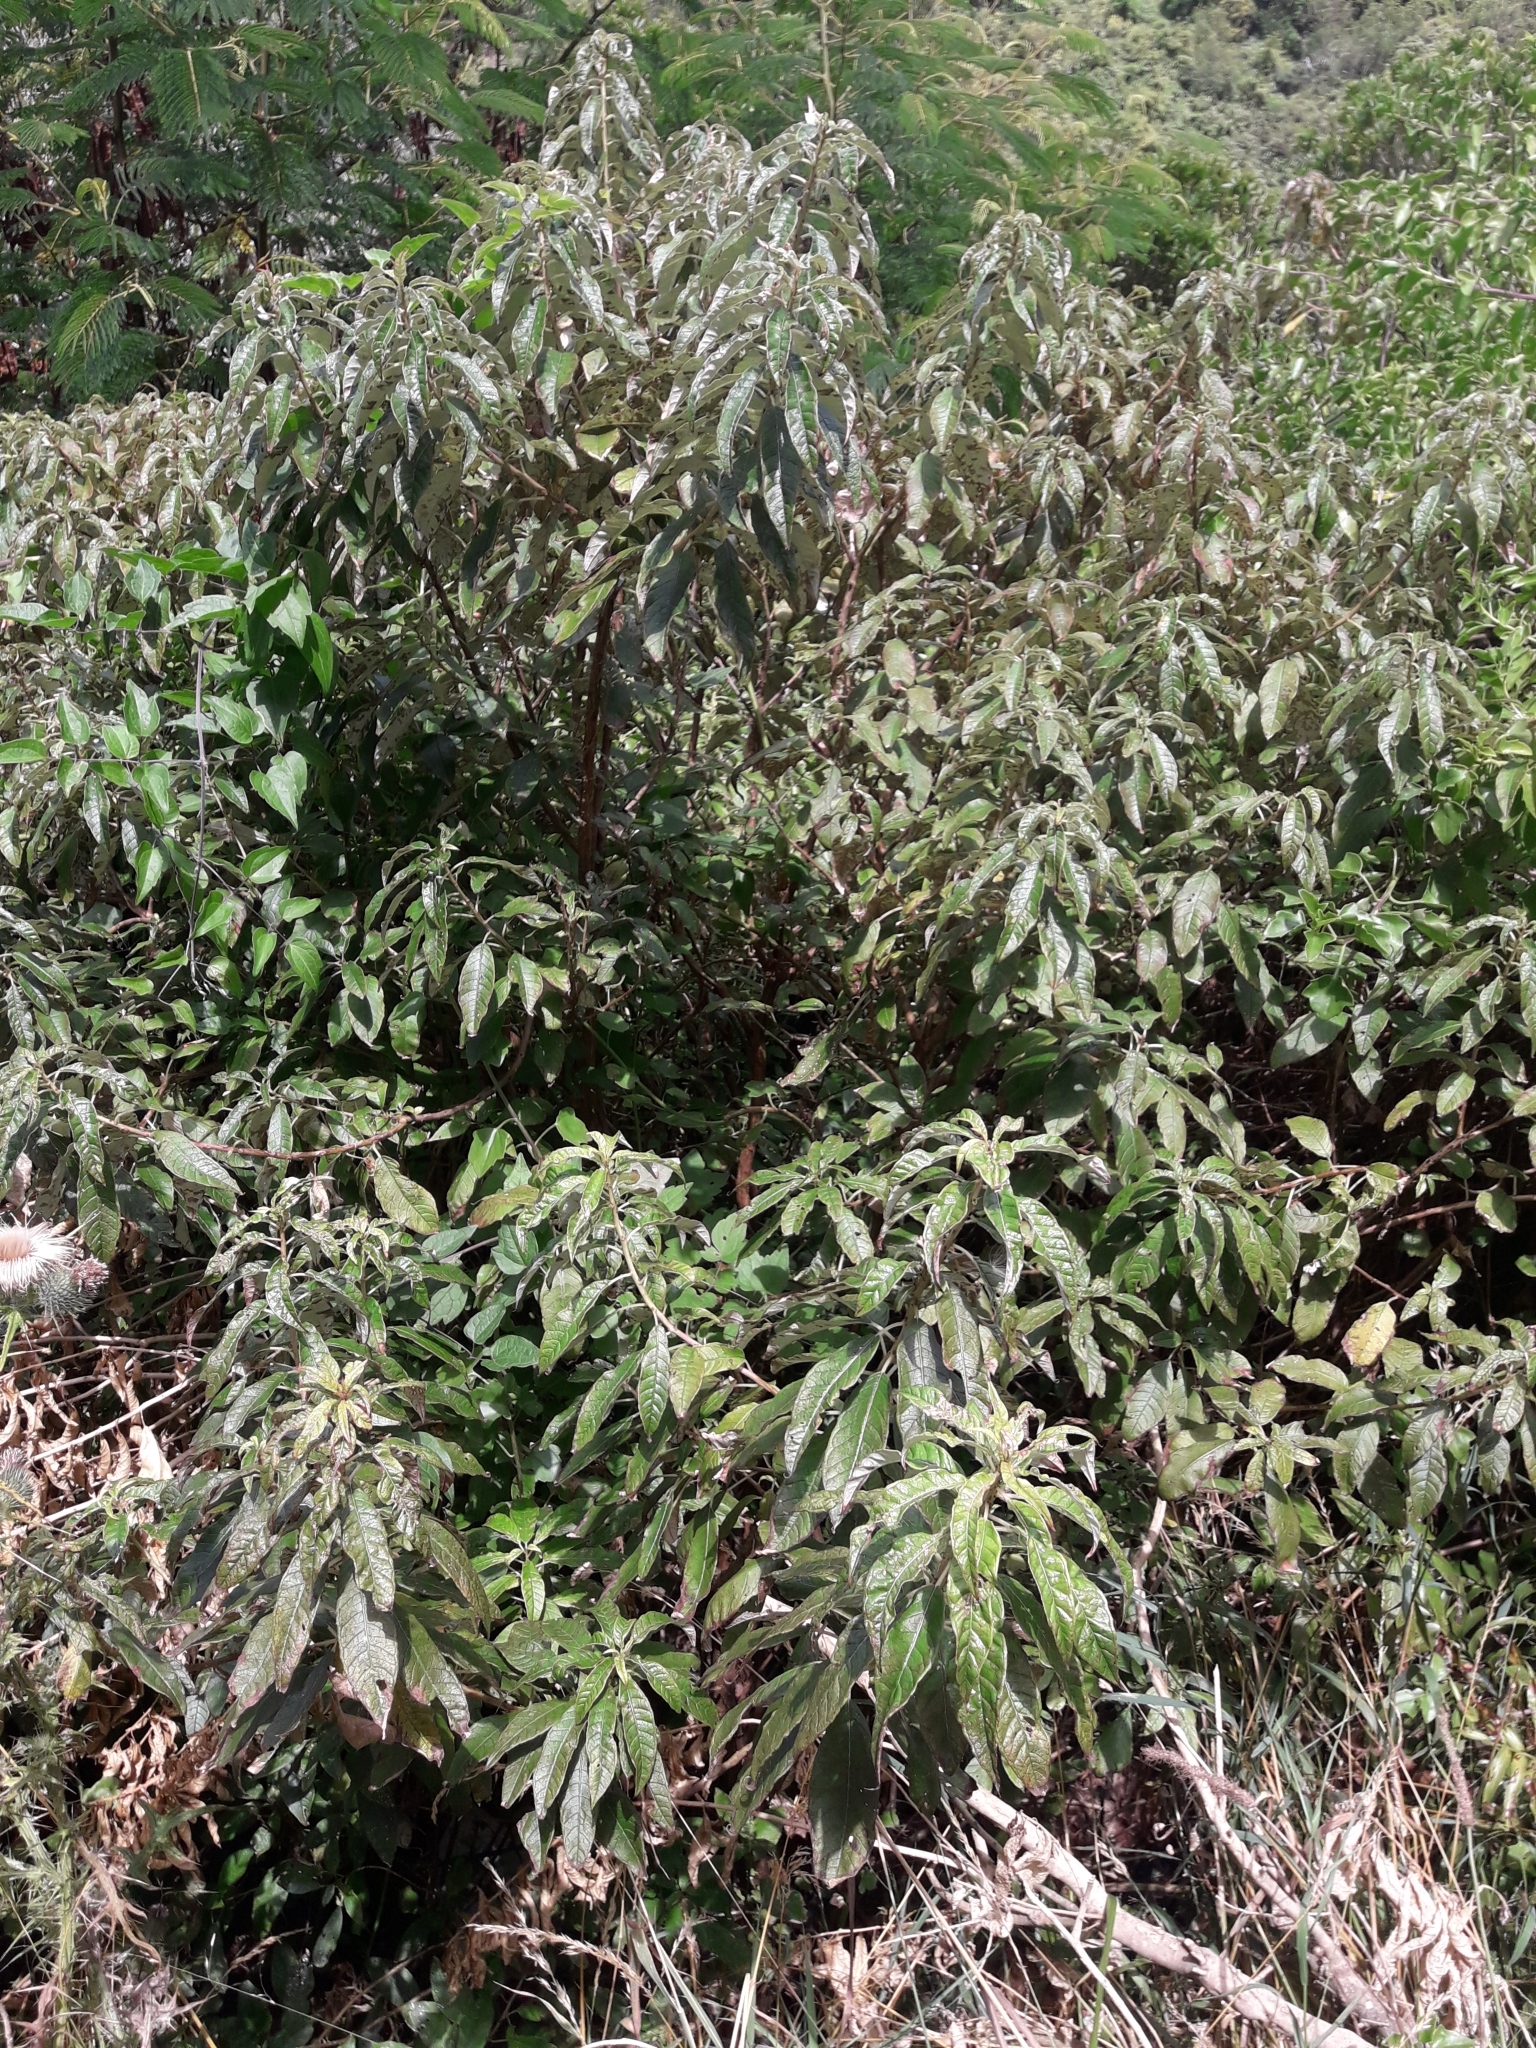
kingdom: Plantae
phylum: Tracheophyta
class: Magnoliopsida
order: Myrtales
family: Onagraceae
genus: Fuchsia
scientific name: Fuchsia excorticata
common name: Tree fuchsia
